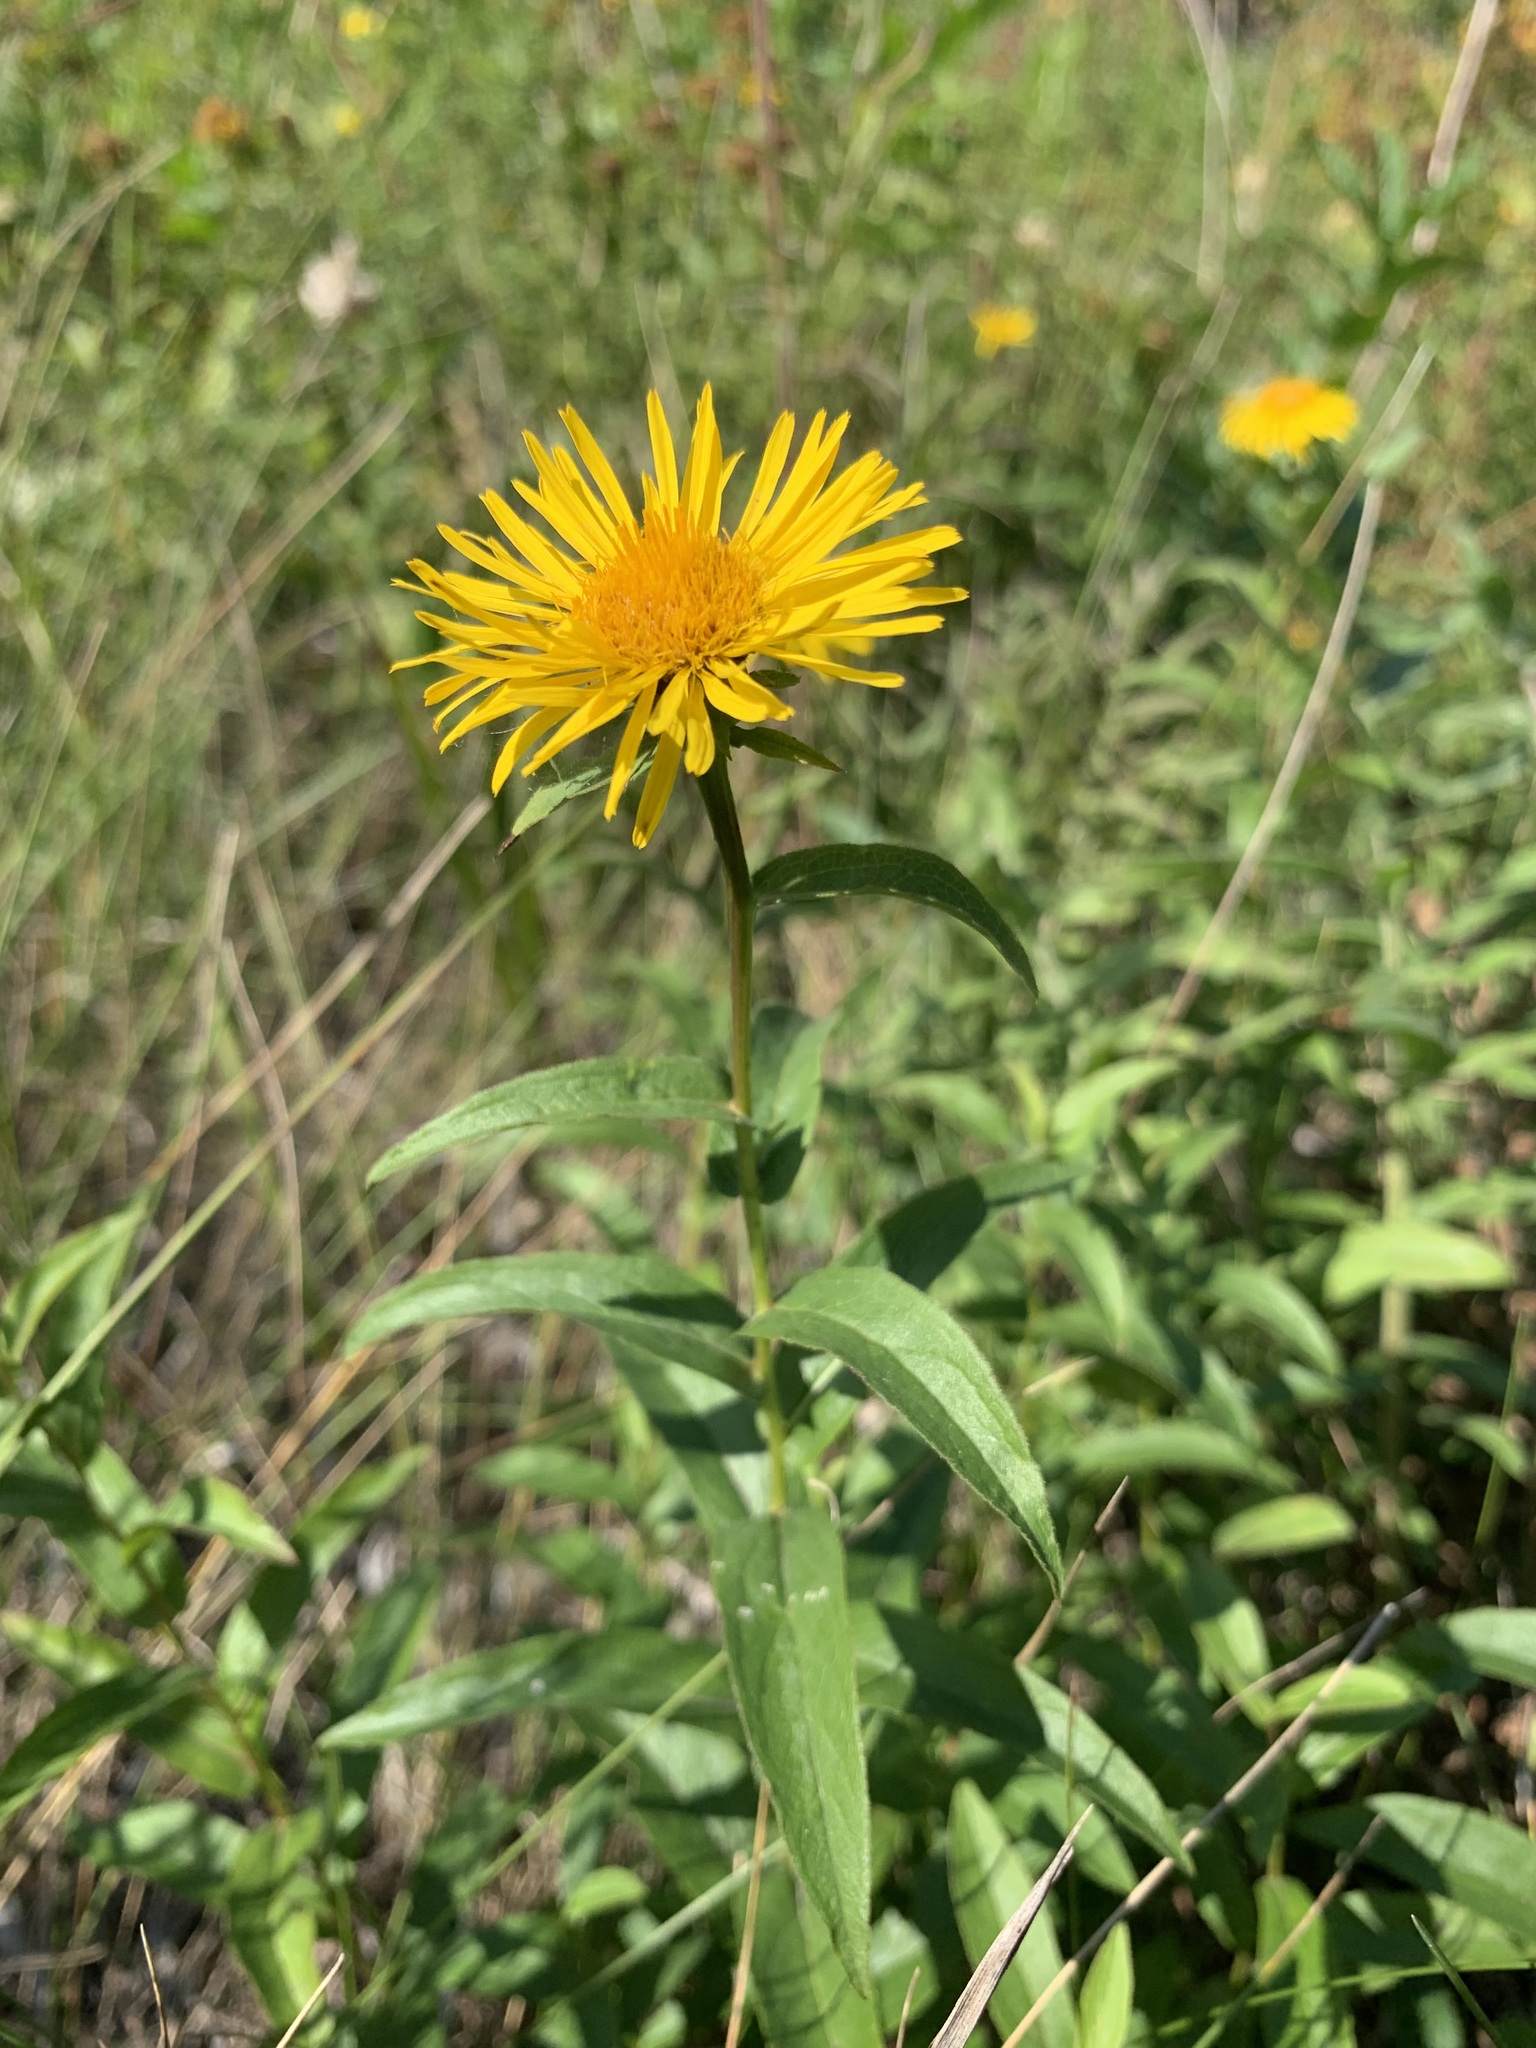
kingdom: Plantae
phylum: Tracheophyta
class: Magnoliopsida
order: Asterales
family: Asteraceae
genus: Pentanema
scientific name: Pentanema salicinum
